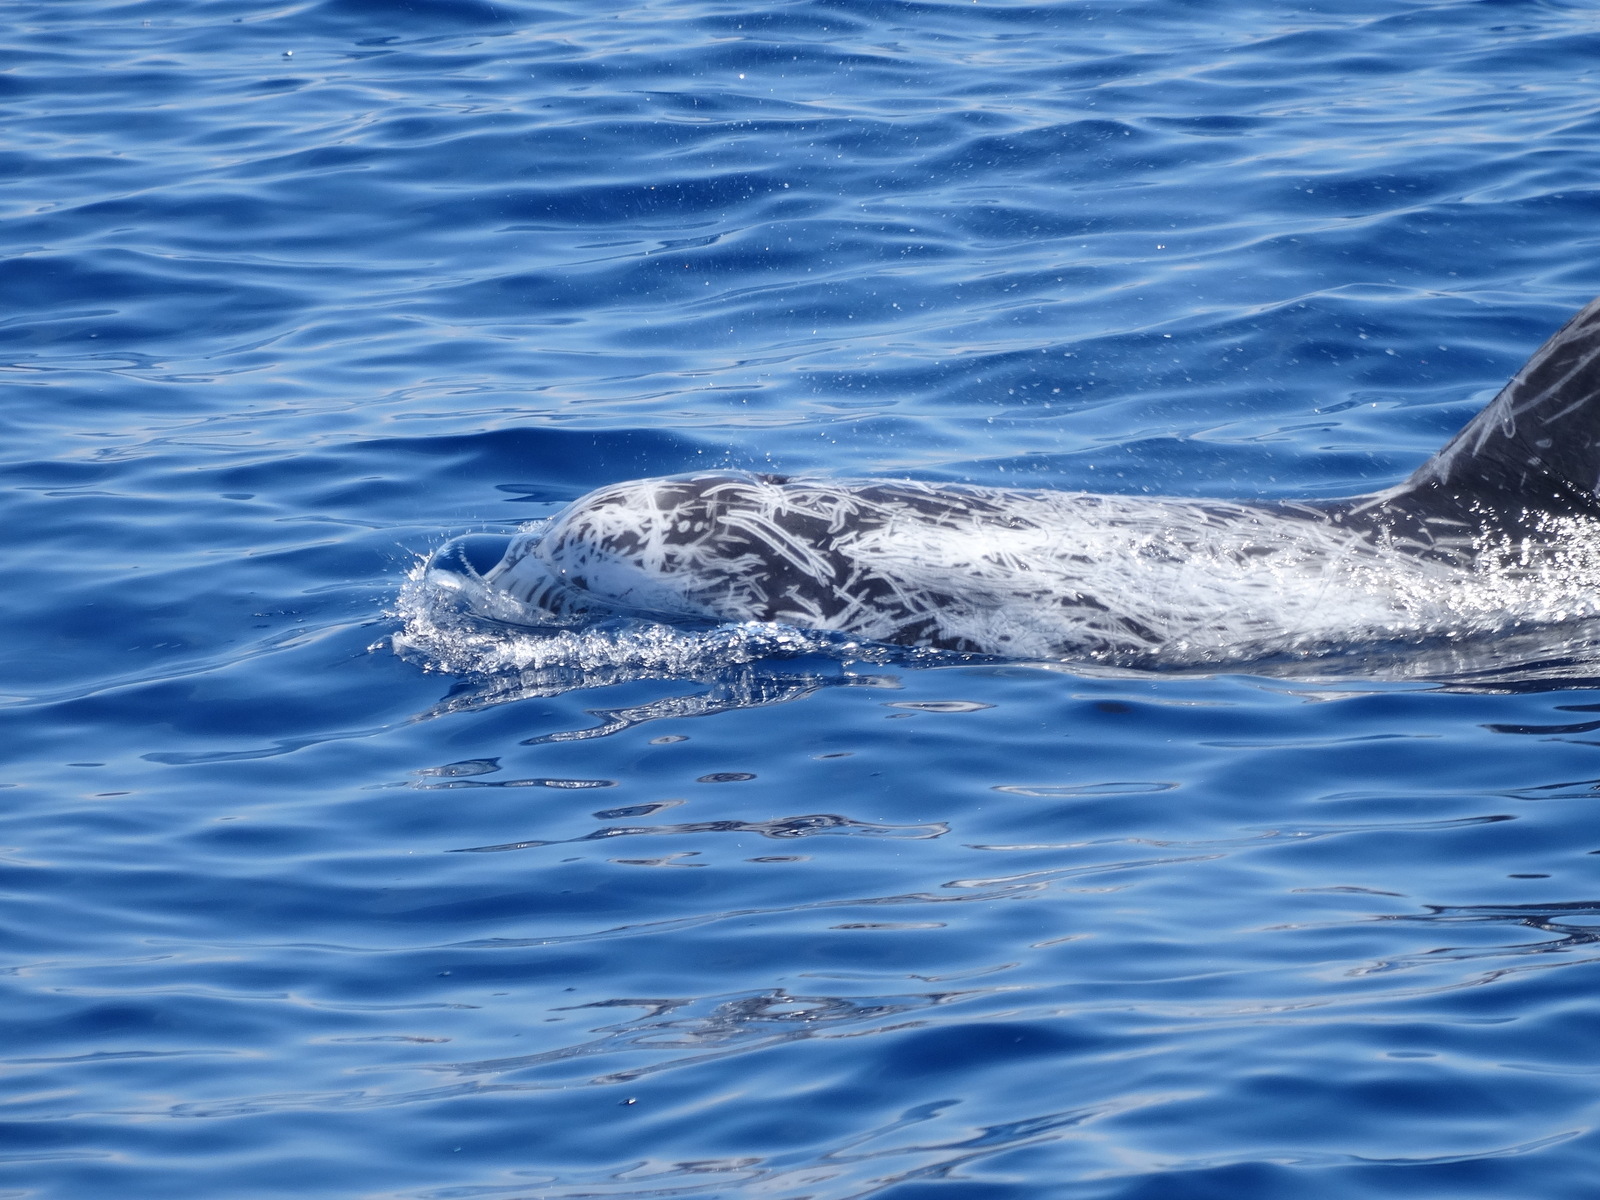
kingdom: Animalia
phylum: Chordata
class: Mammalia
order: Cetacea
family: Delphinidae
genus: Grampus
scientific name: Grampus griseus
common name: Risso's dolphin
